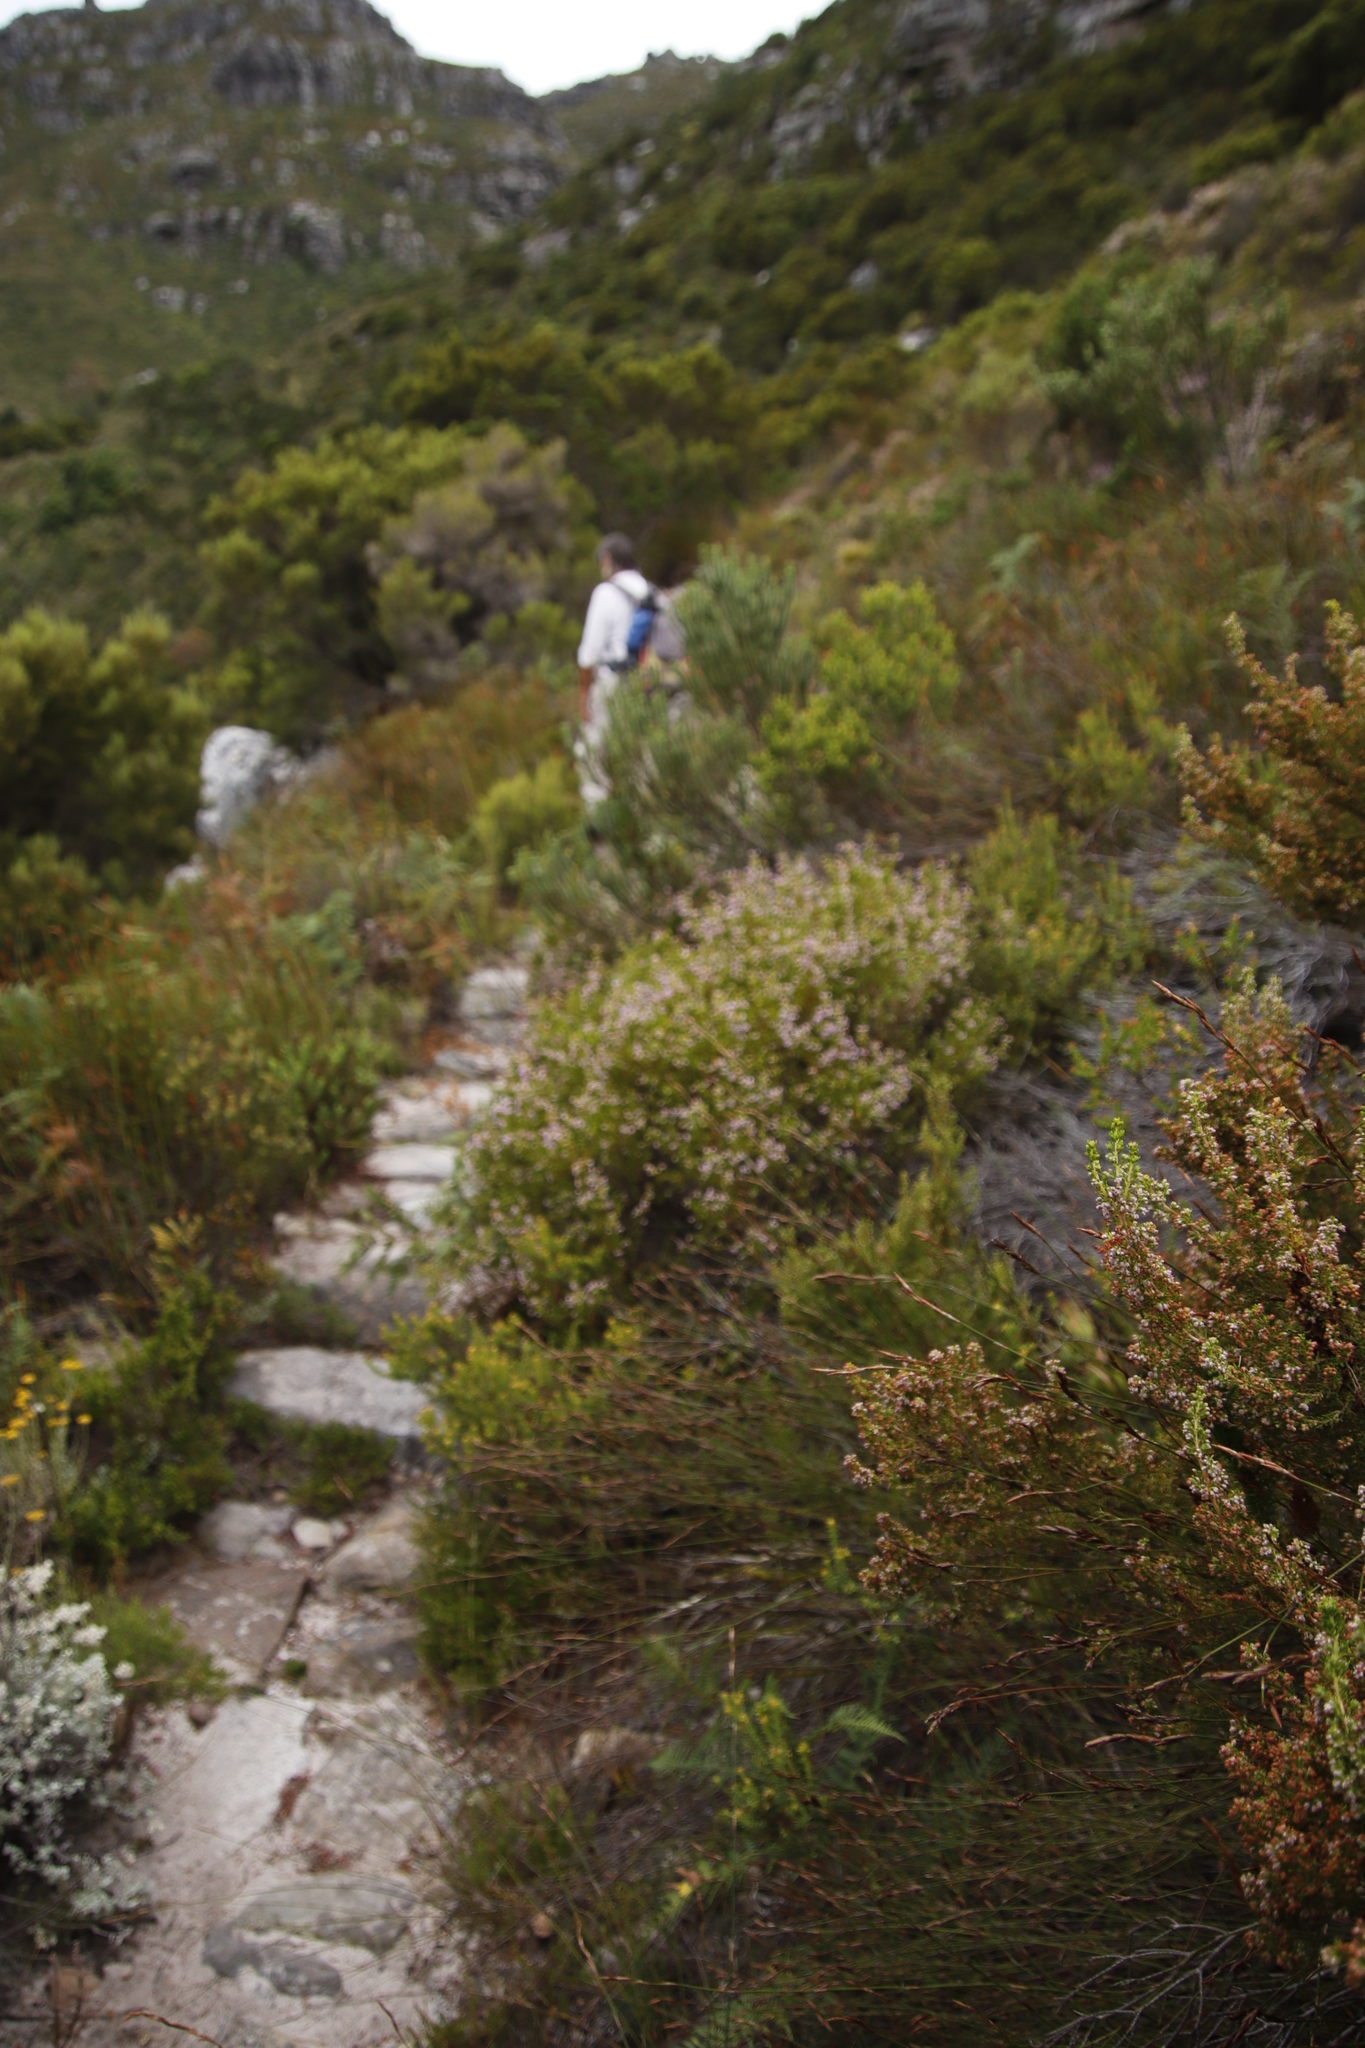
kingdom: Plantae
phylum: Tracheophyta
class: Magnoliopsida
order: Ericales
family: Ericaceae
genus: Erica
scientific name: Erica curvirostris
